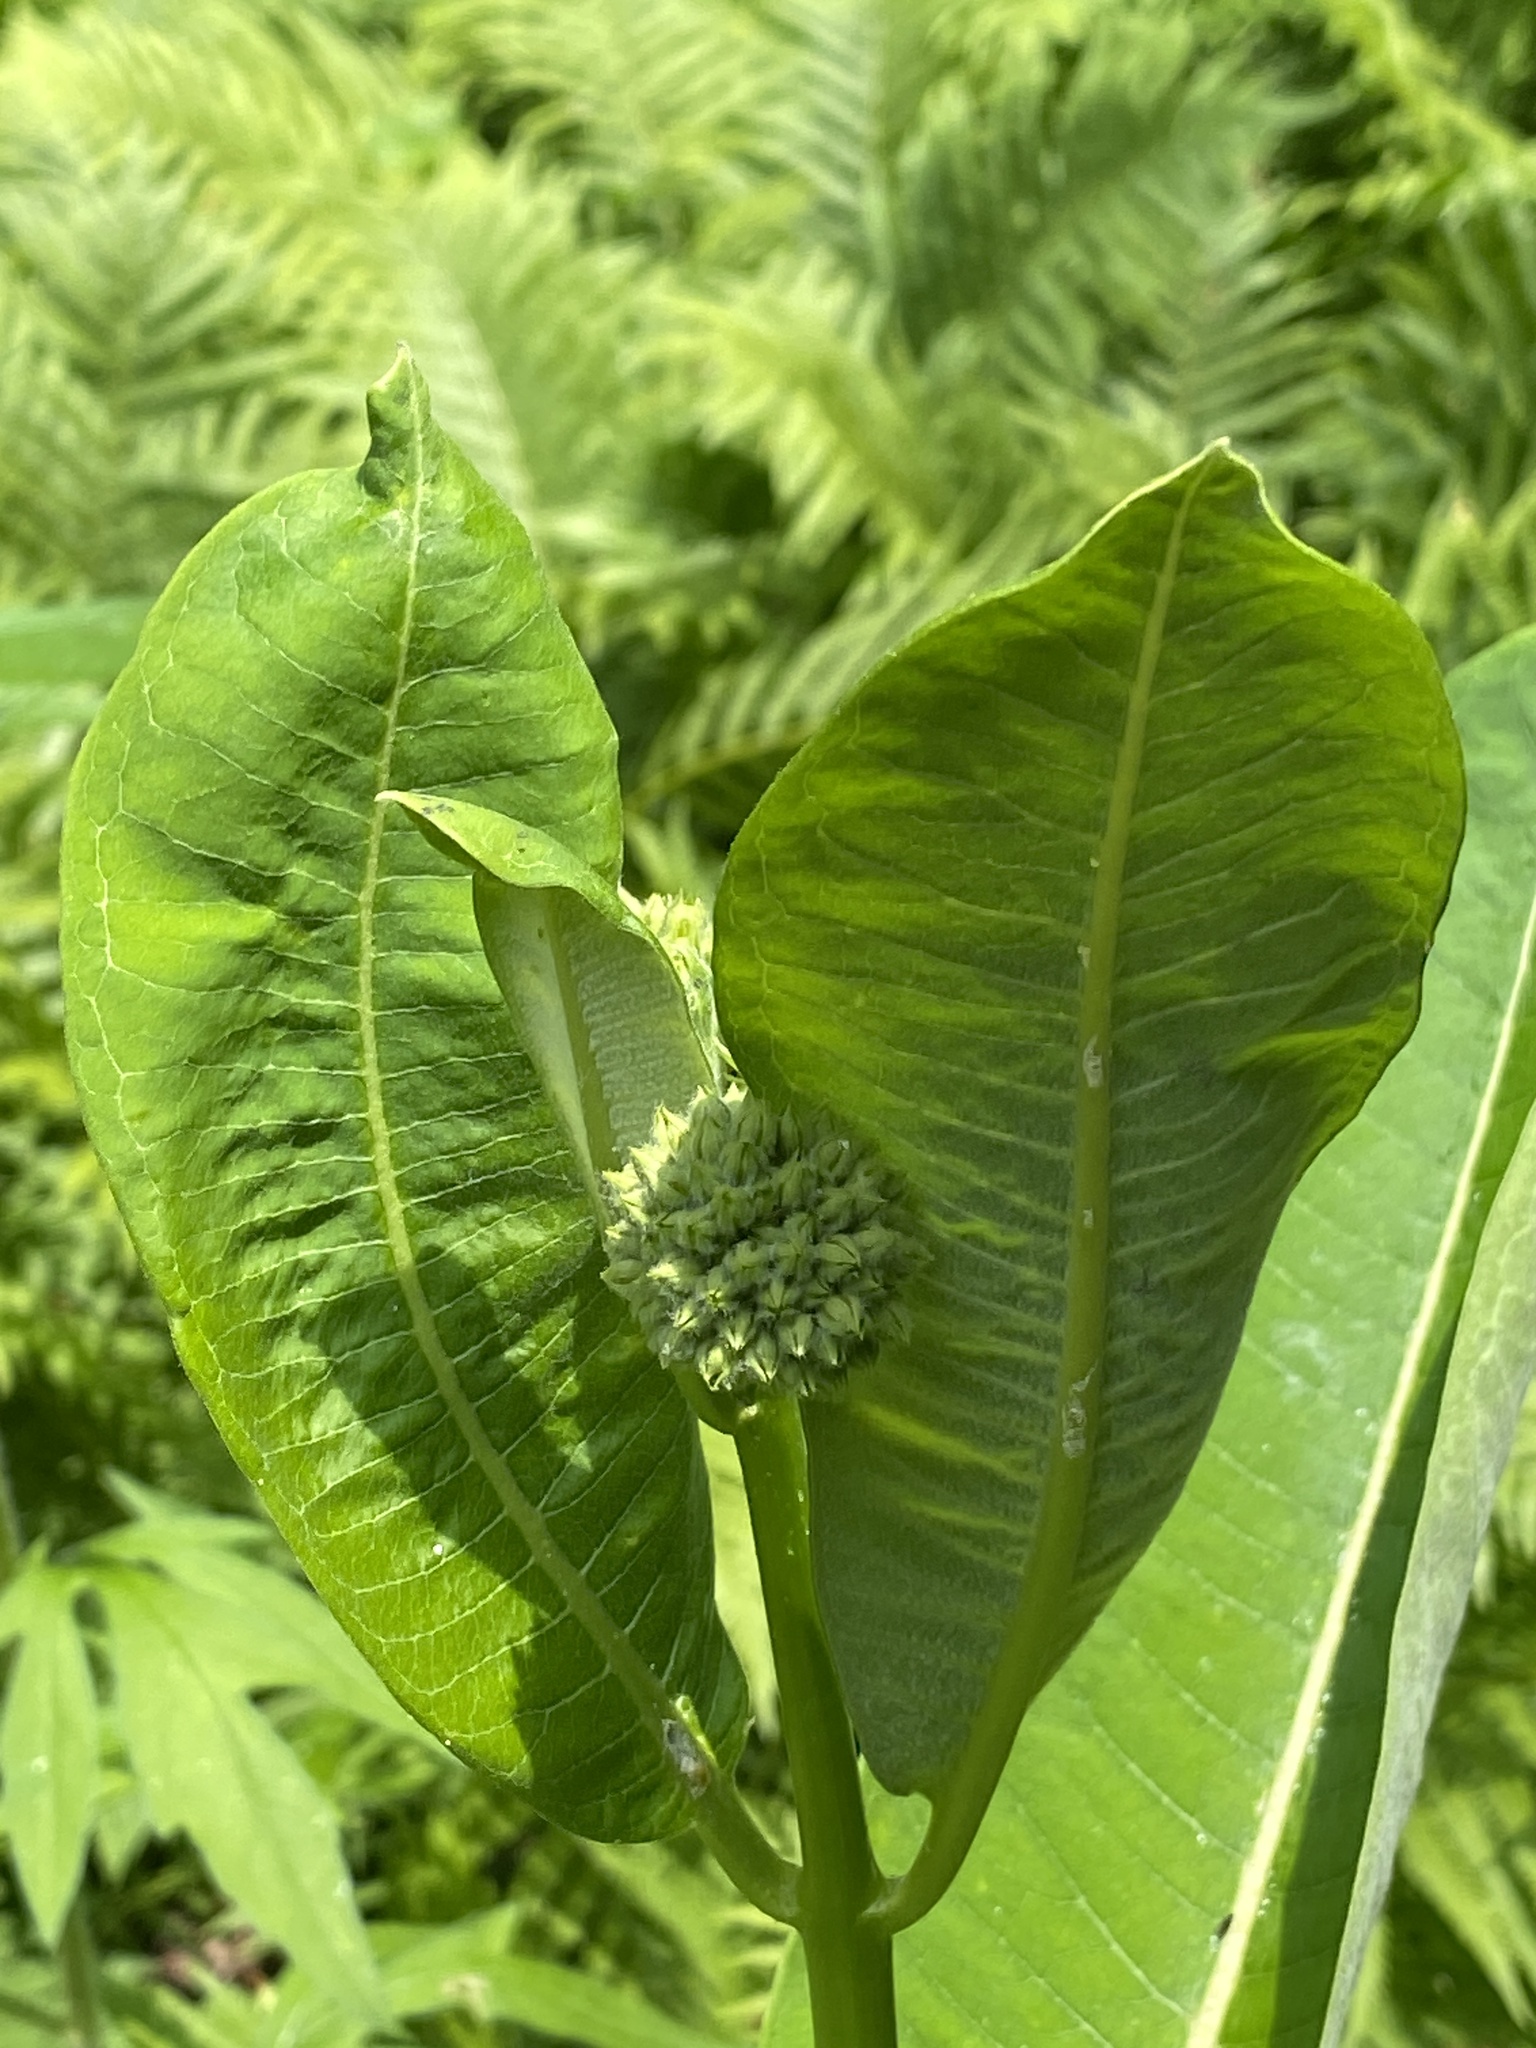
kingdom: Plantae
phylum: Tracheophyta
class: Magnoliopsida
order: Gentianales
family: Apocynaceae
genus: Asclepias
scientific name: Asclepias syriaca
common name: Common milkweed
